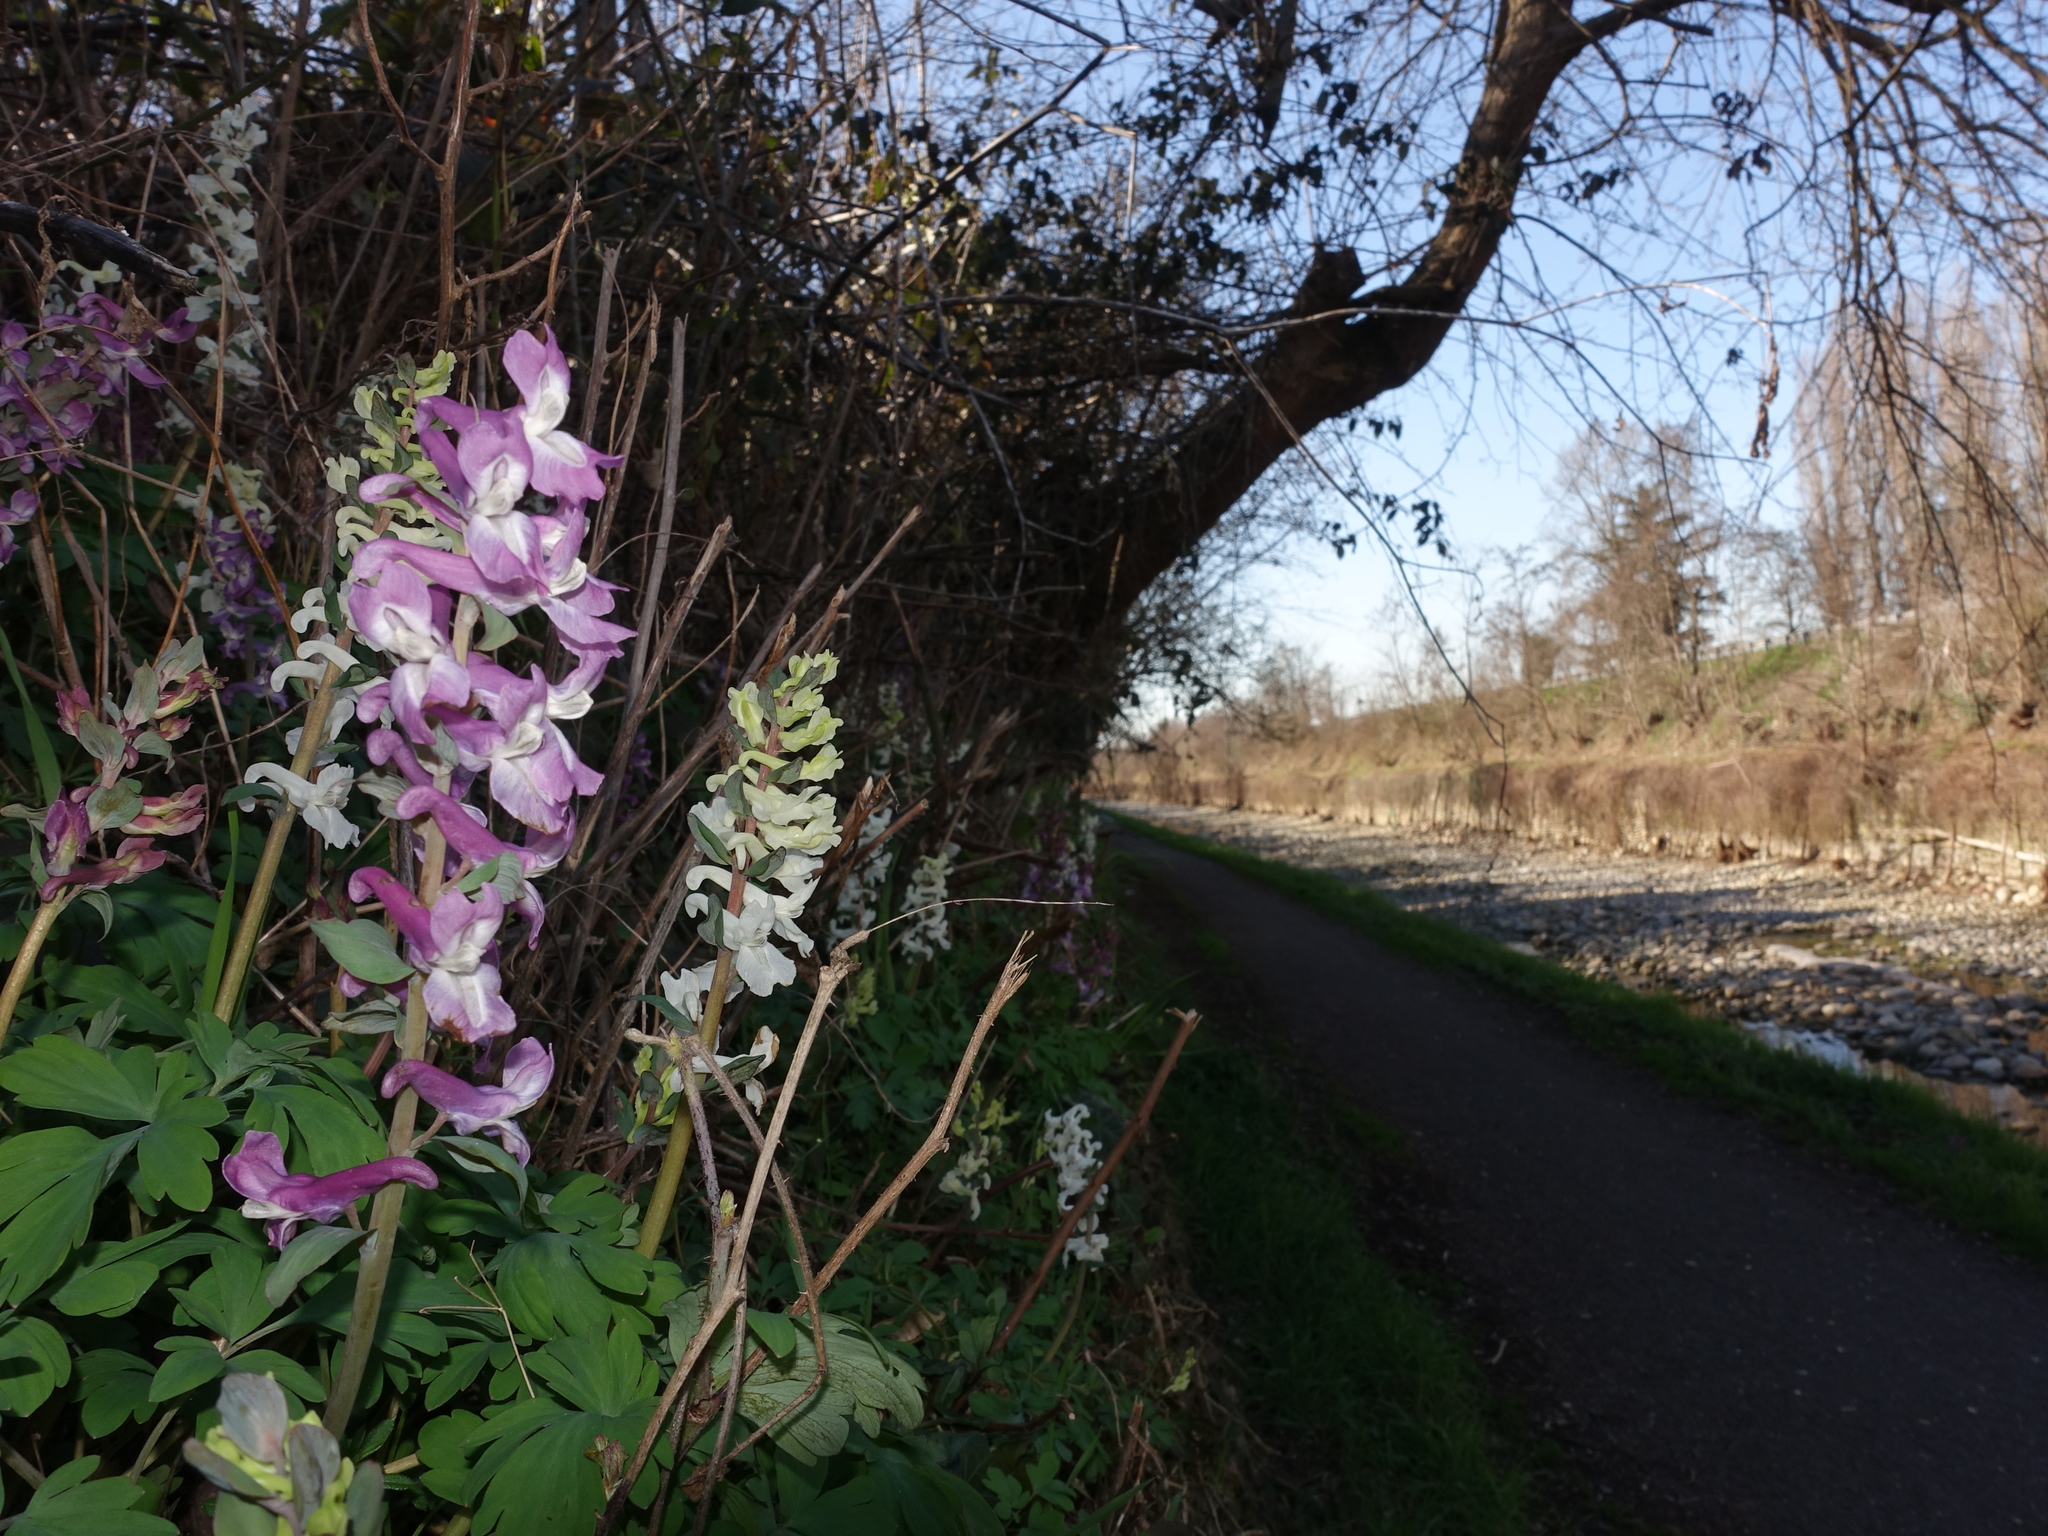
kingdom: Plantae
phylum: Tracheophyta
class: Magnoliopsida
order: Ranunculales
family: Papaveraceae
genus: Corydalis
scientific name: Corydalis cava
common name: Hollowroot
